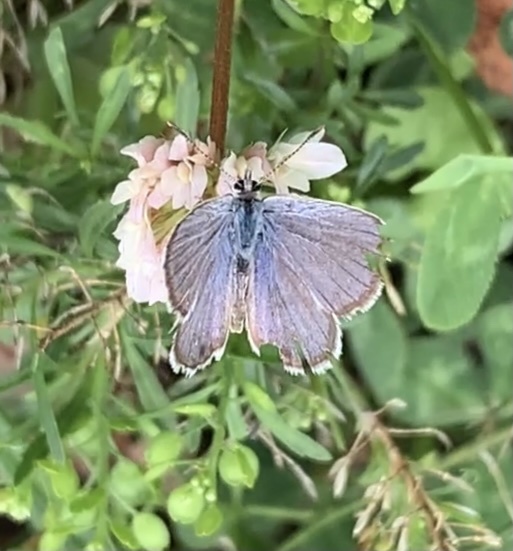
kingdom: Animalia
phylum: Arthropoda
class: Insecta
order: Lepidoptera
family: Lycaenidae
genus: Hemiargus
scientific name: Hemiargus ceraunus
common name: Ceraunus blue
